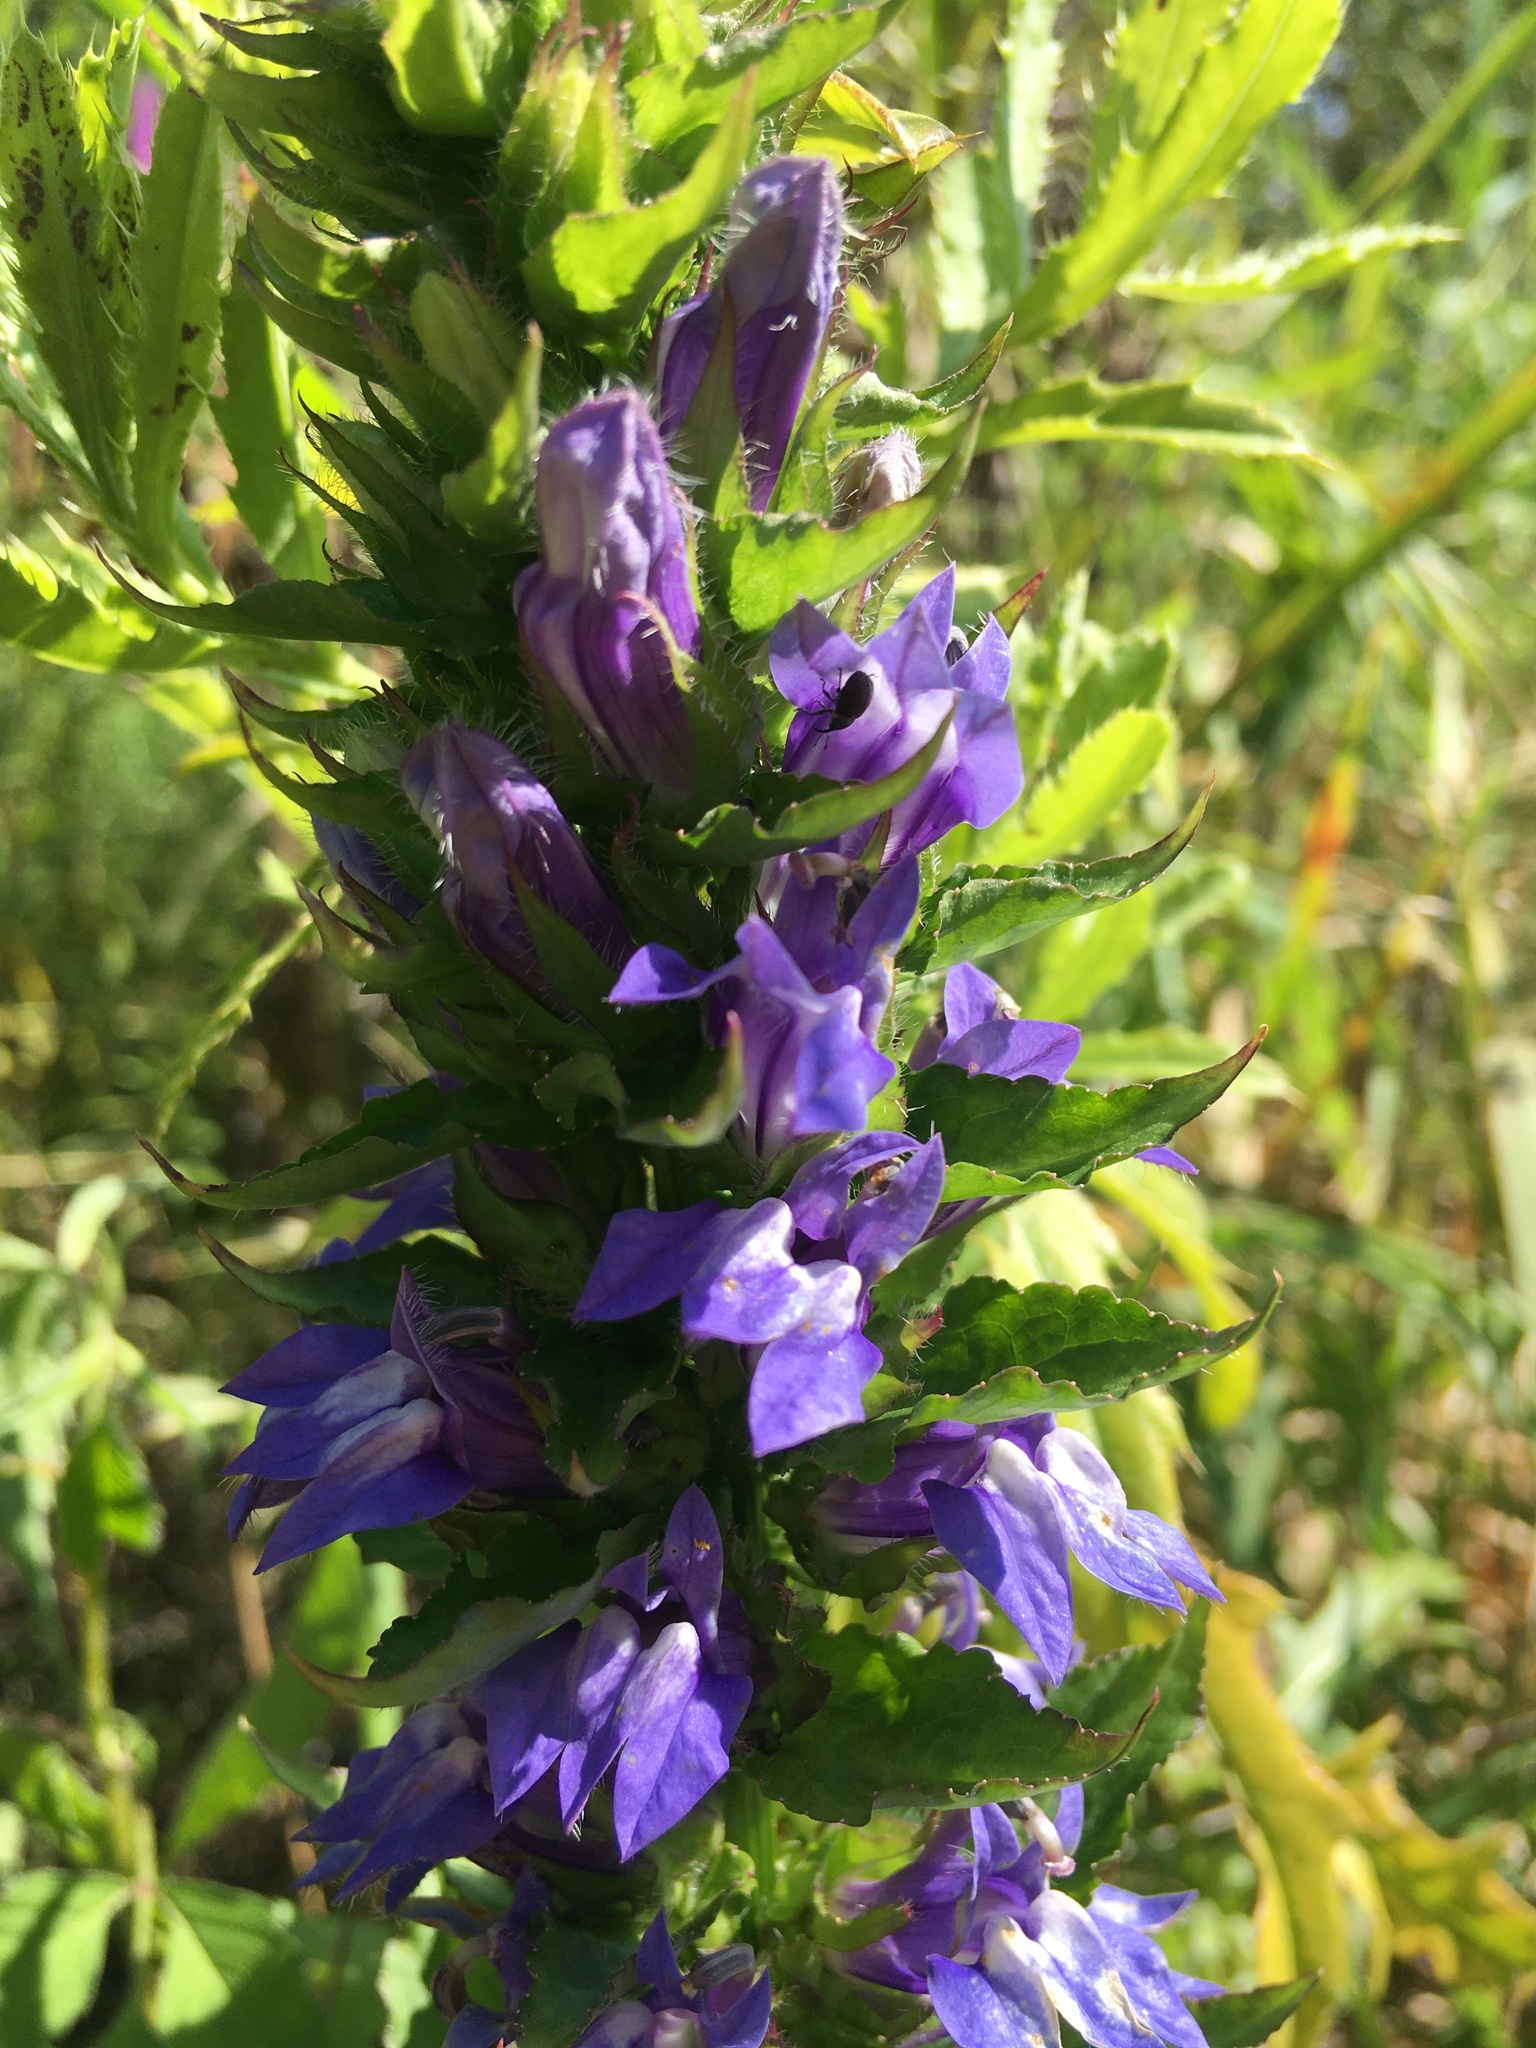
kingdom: Plantae
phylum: Tracheophyta
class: Magnoliopsida
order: Asterales
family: Campanulaceae
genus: Lobelia
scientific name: Lobelia siphilitica
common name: Great lobelia
